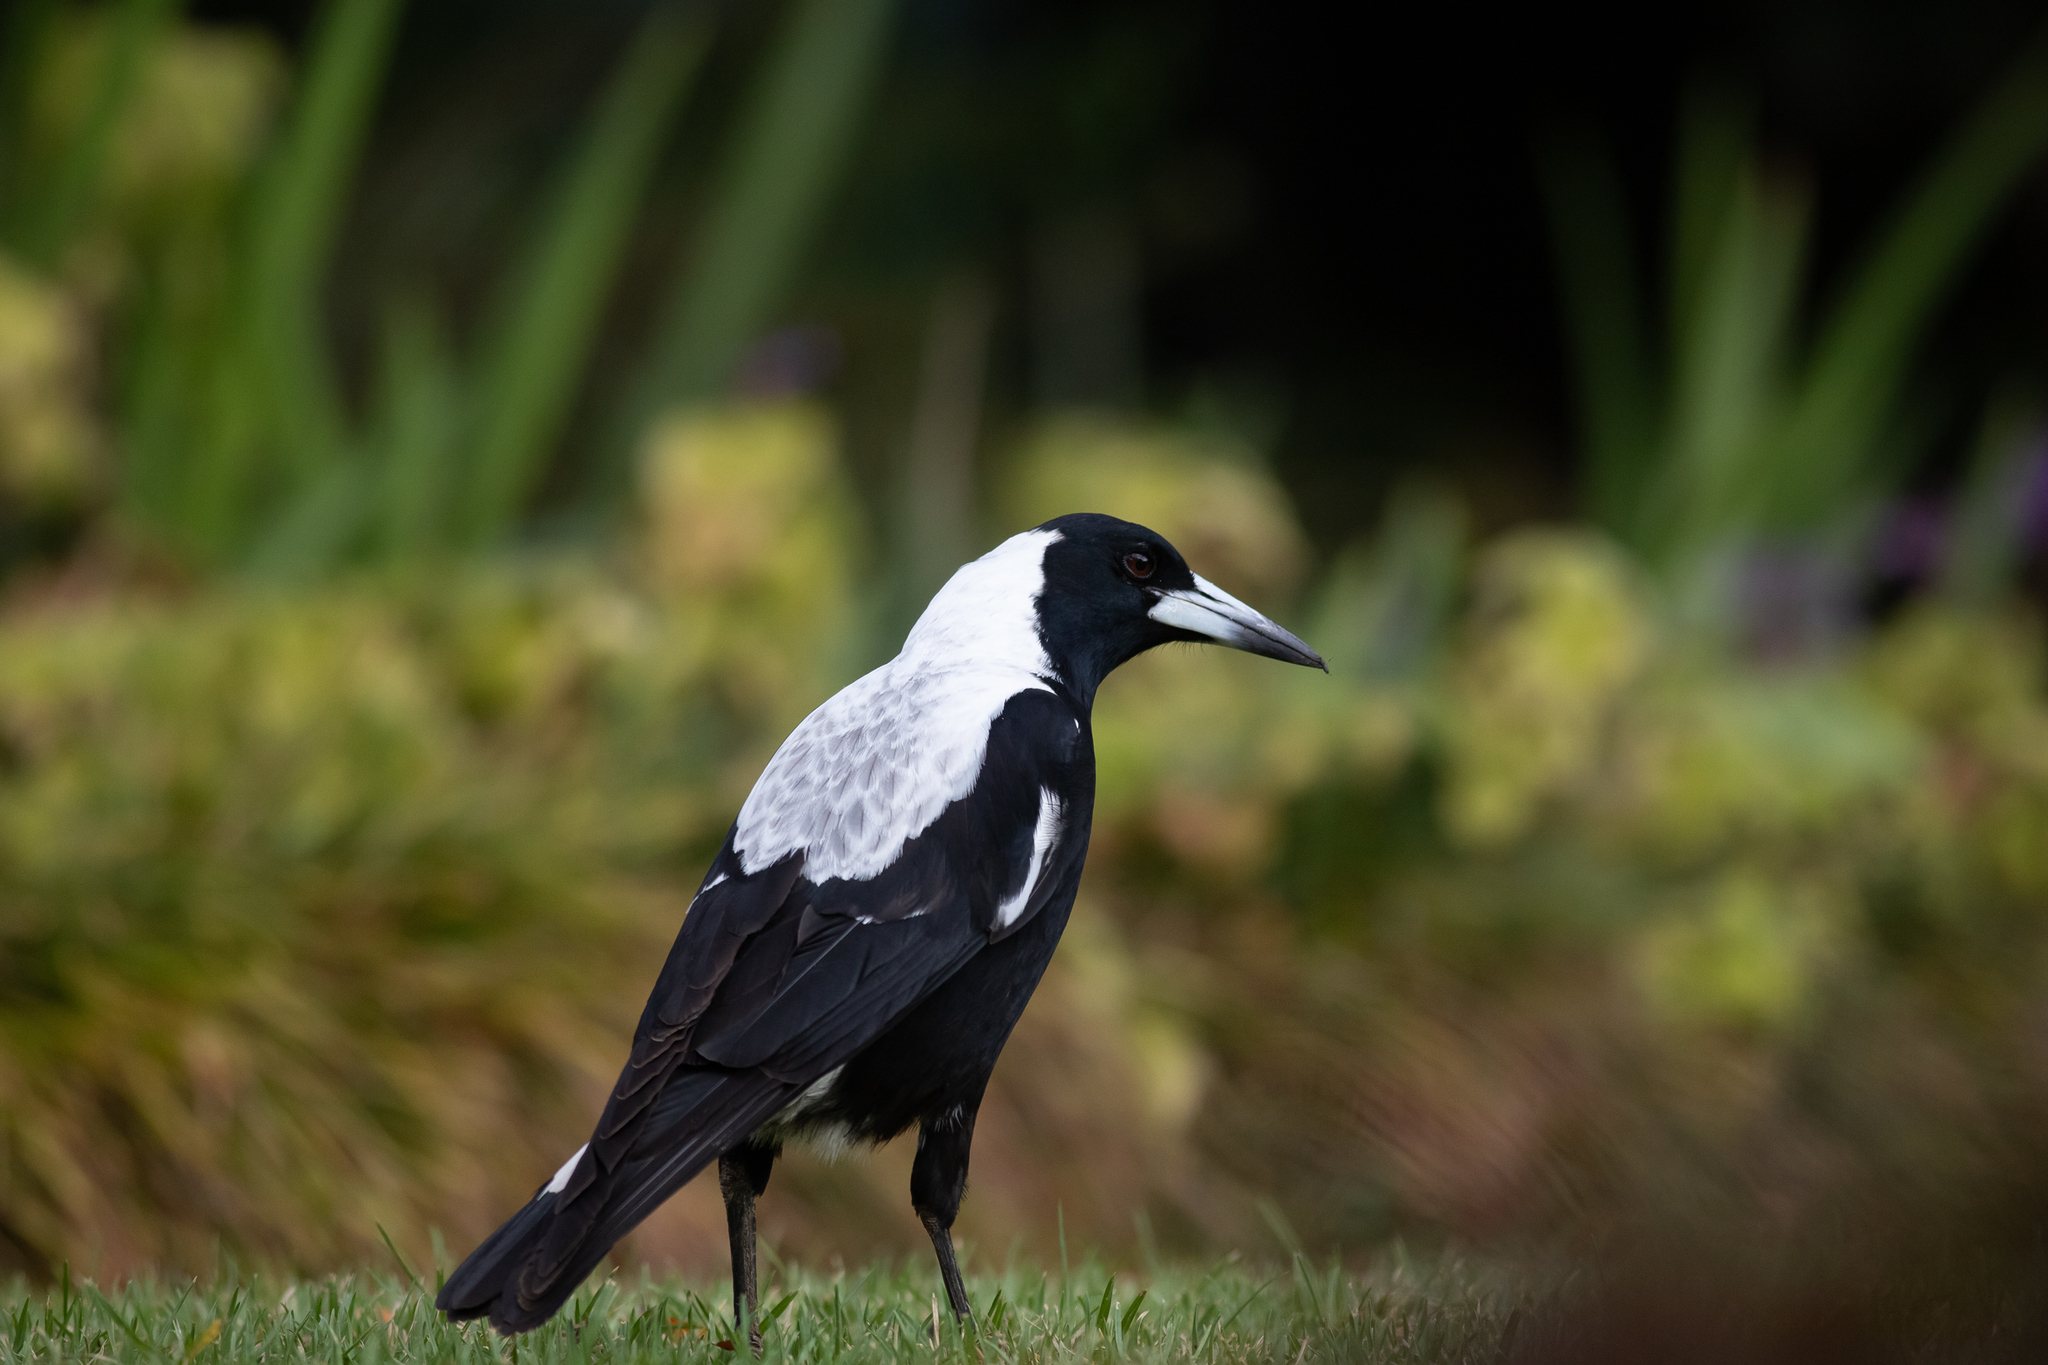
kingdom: Animalia
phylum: Chordata
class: Aves
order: Passeriformes
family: Cracticidae
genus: Gymnorhina
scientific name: Gymnorhina tibicen
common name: Australian magpie
